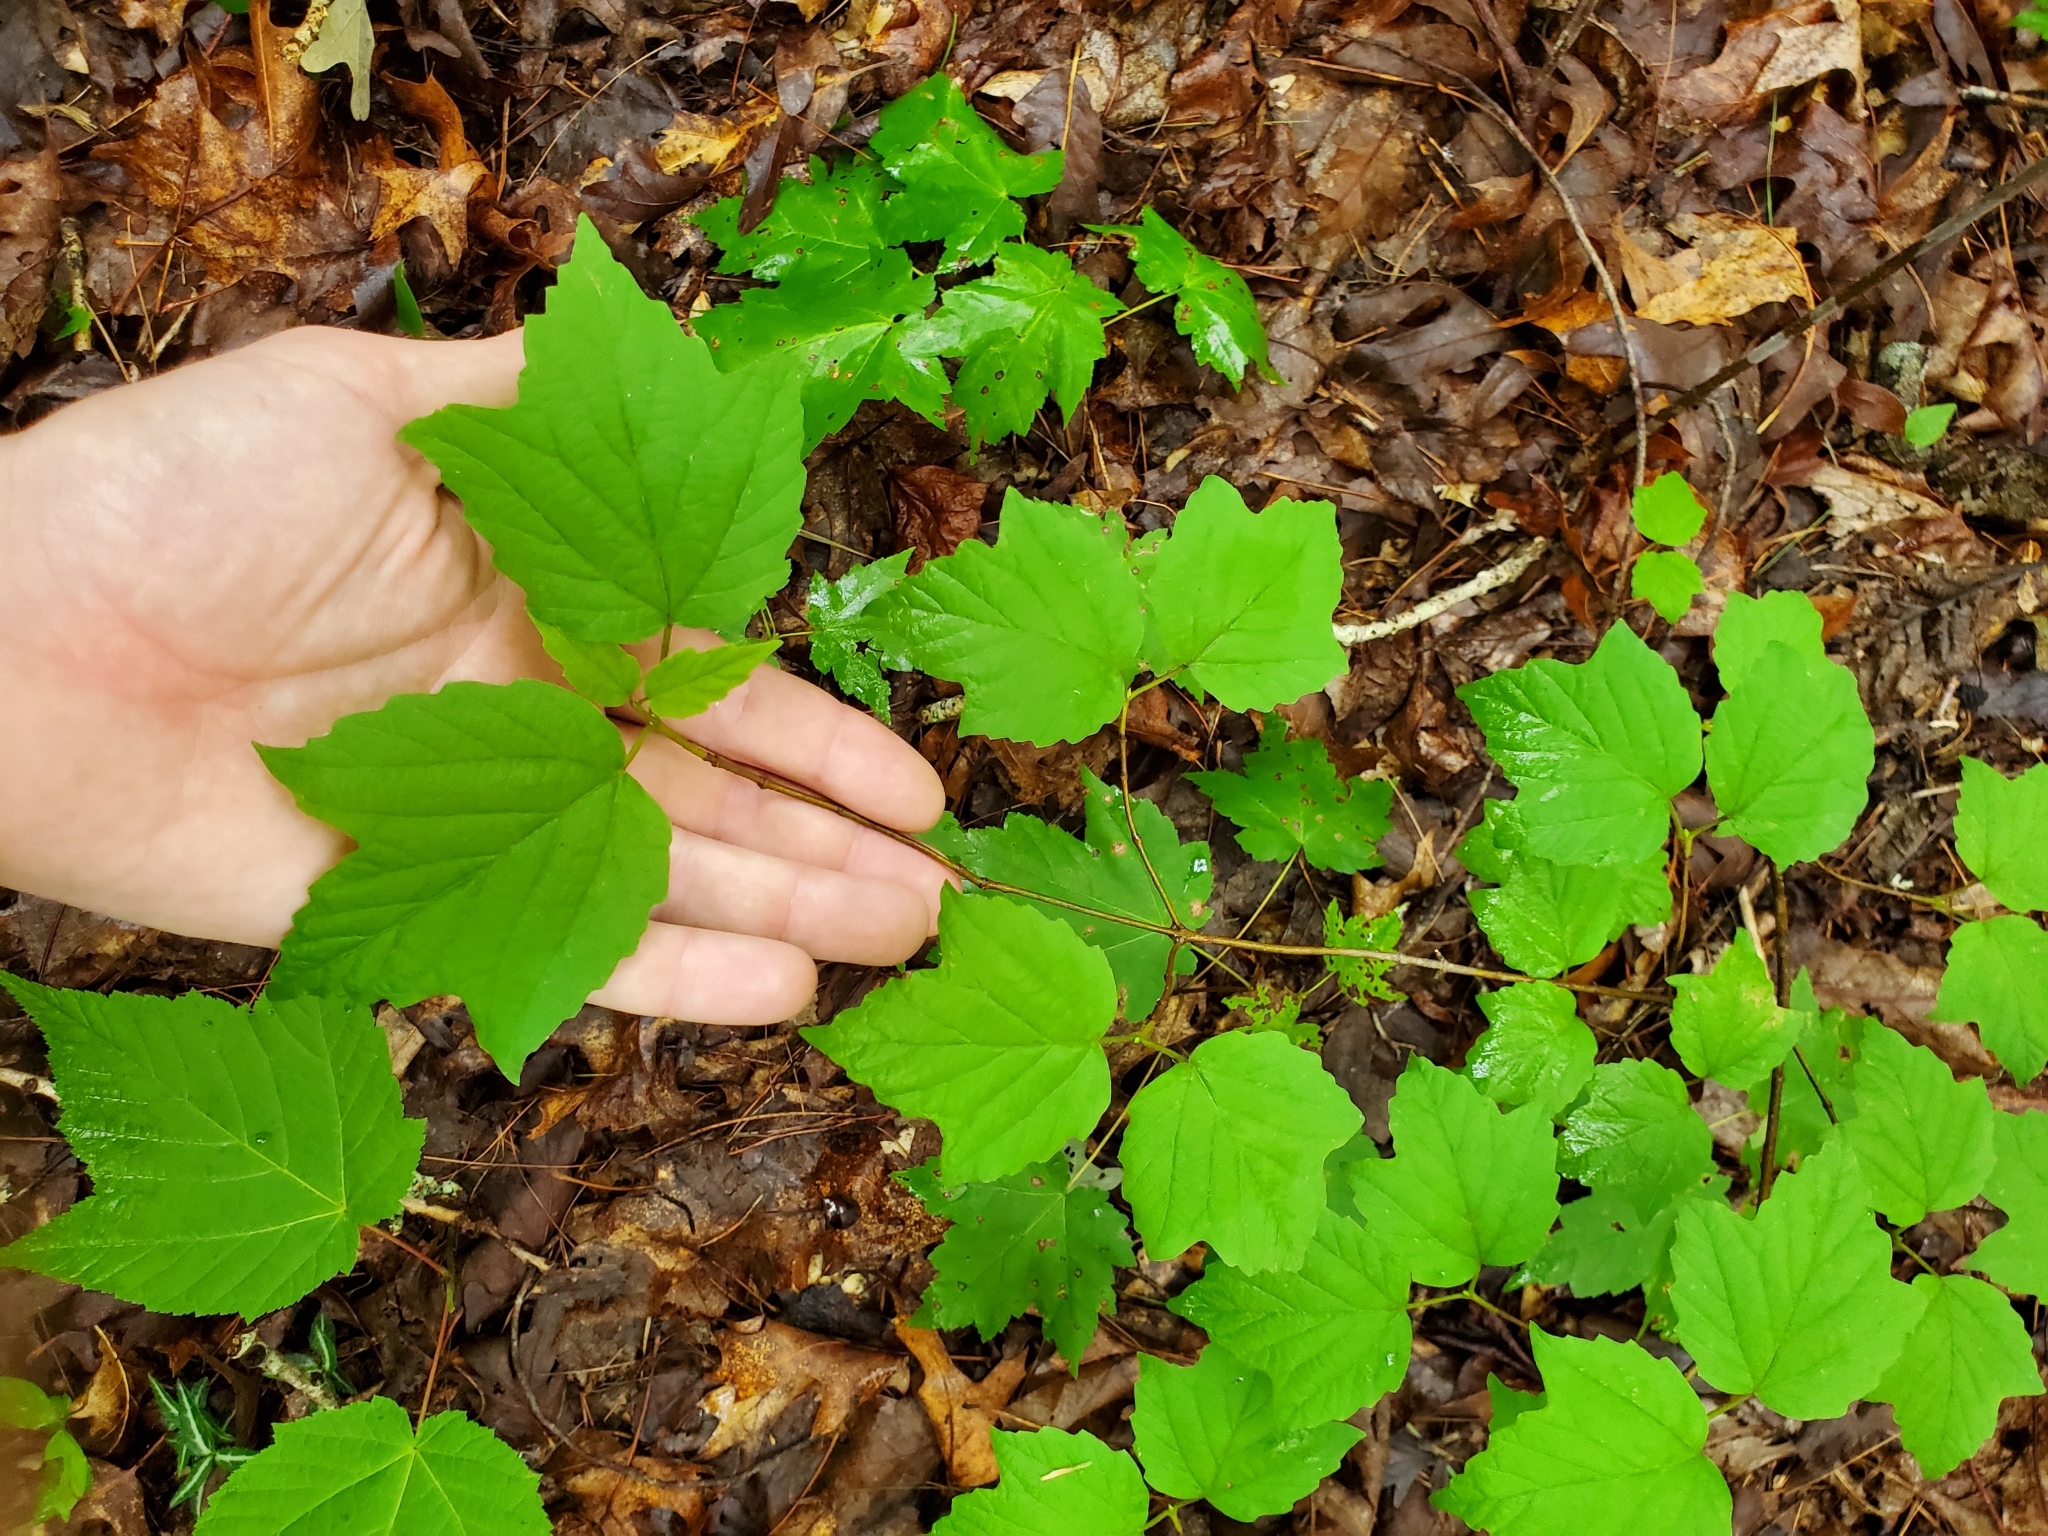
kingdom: Plantae
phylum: Tracheophyta
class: Magnoliopsida
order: Dipsacales
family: Viburnaceae
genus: Viburnum
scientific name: Viburnum acerifolium
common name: Dockmackie
